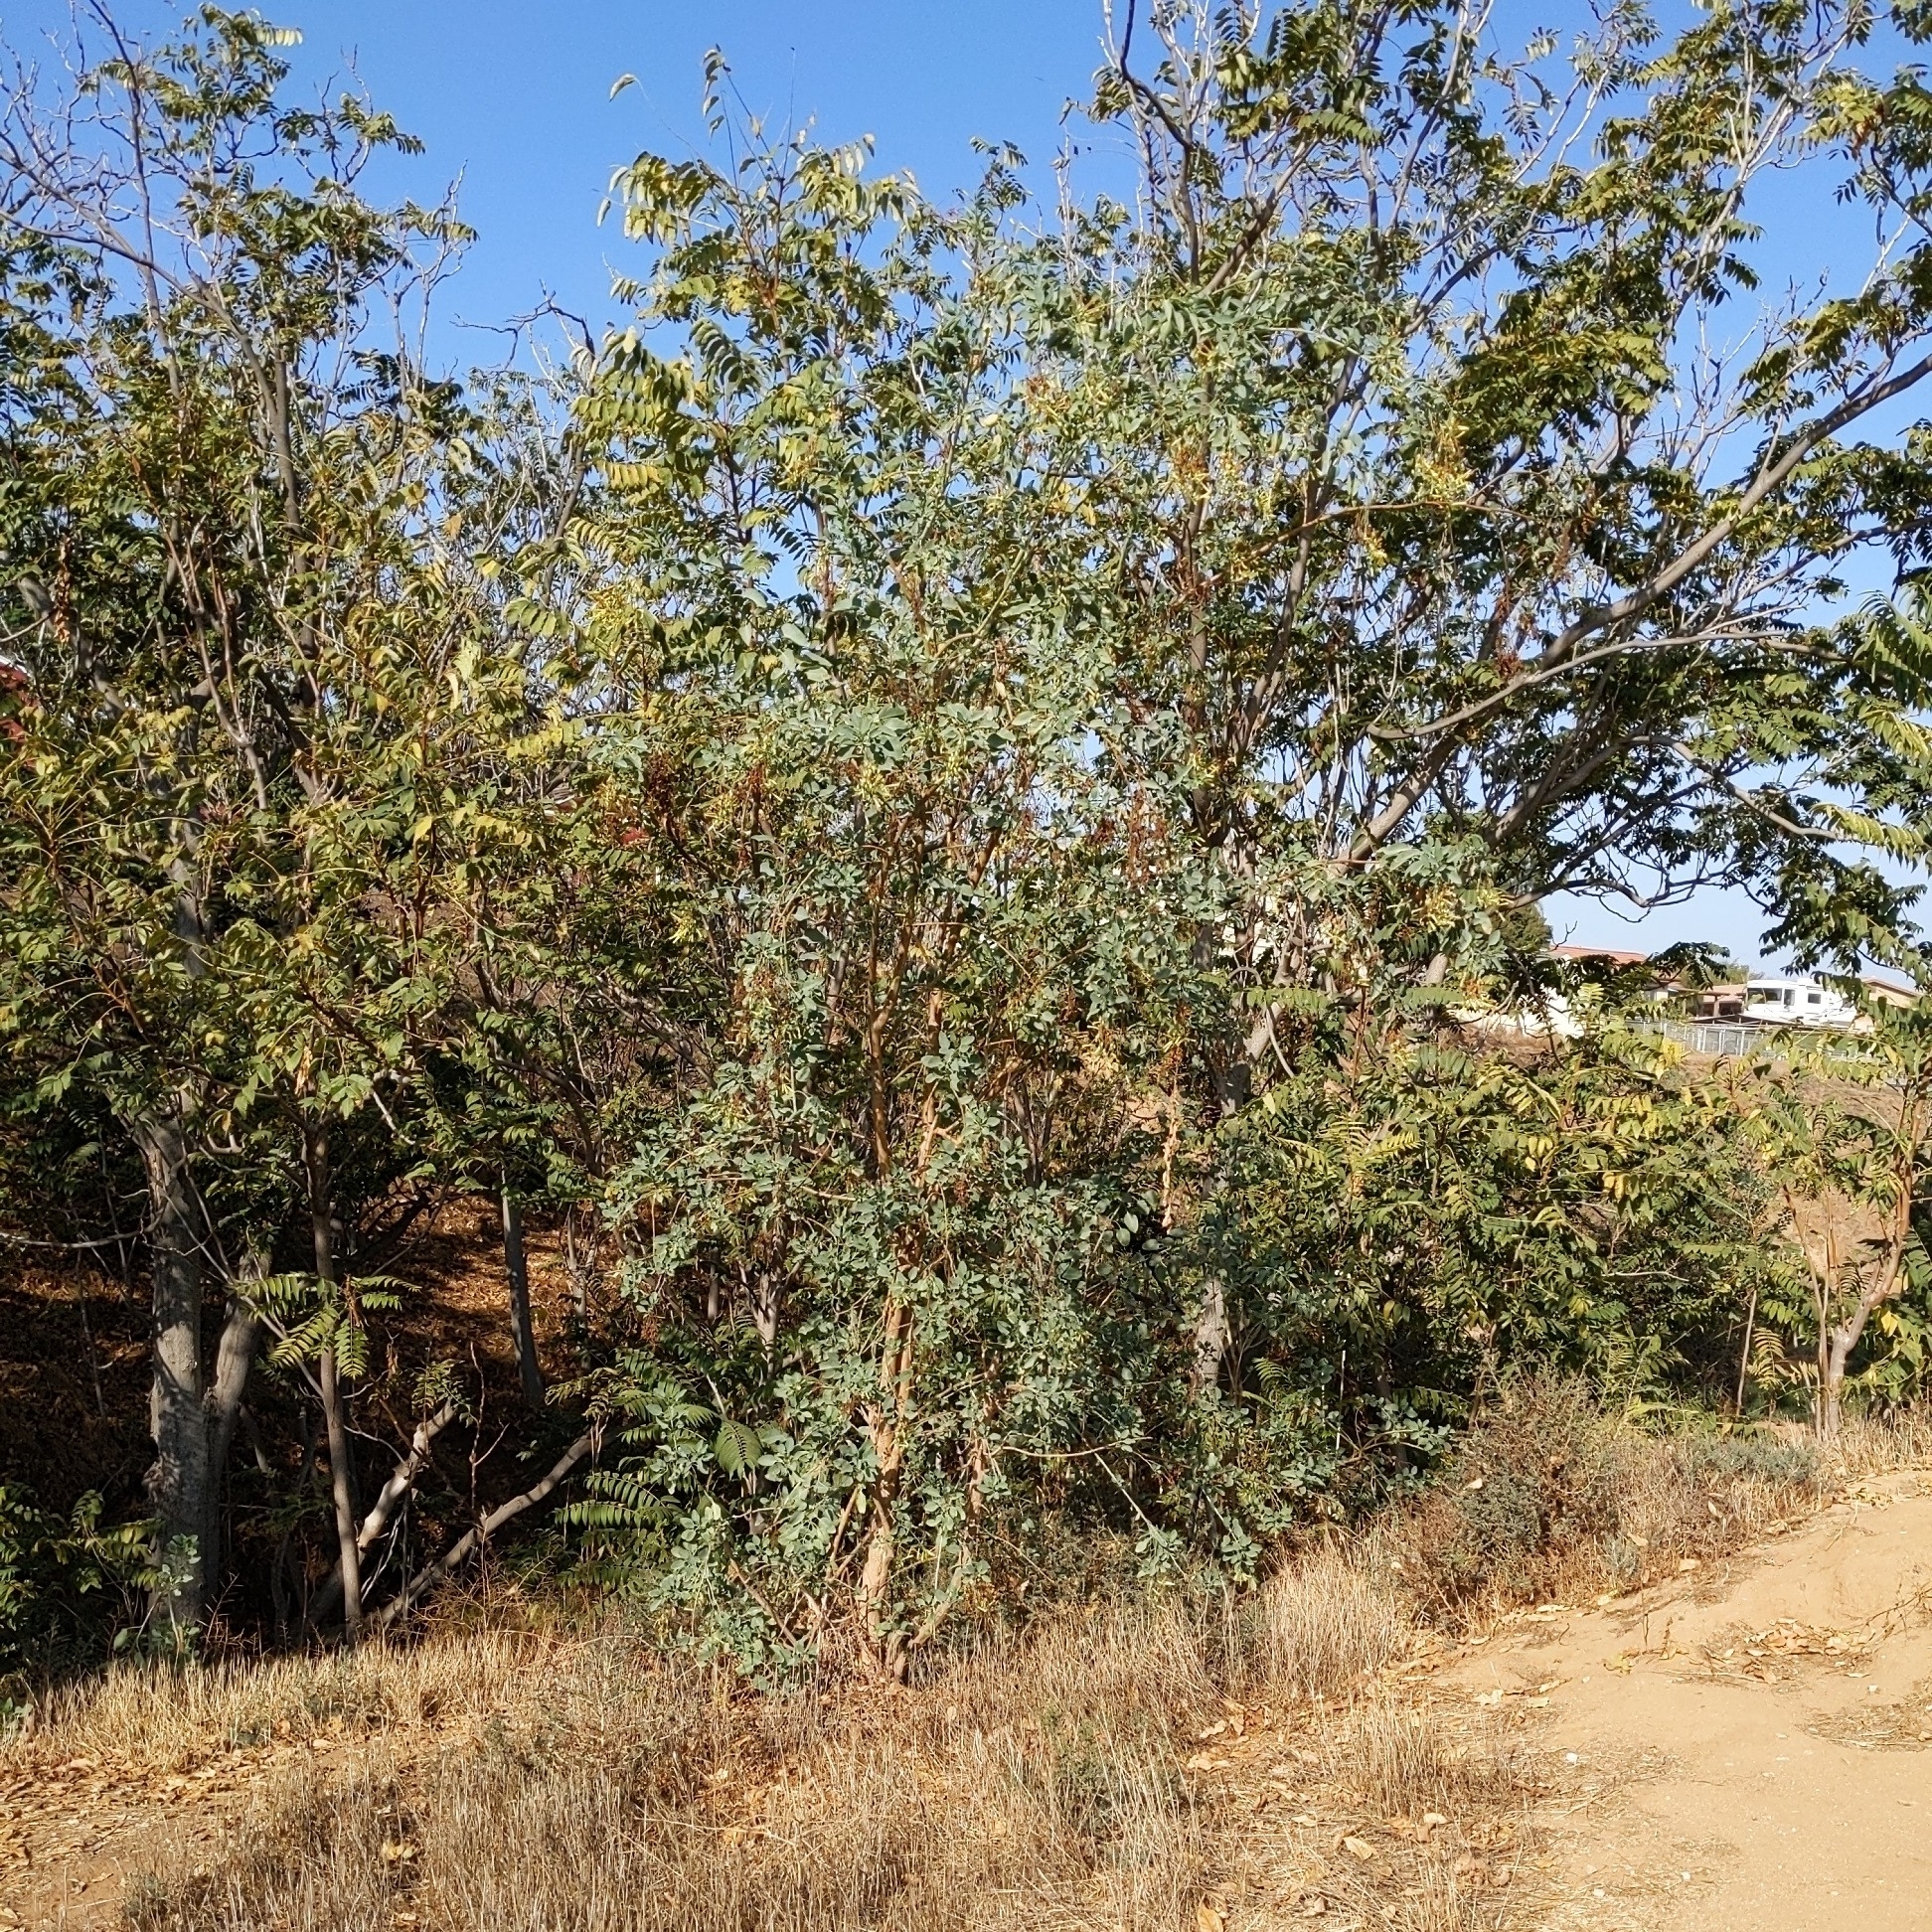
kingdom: Plantae
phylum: Tracheophyta
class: Magnoliopsida
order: Solanales
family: Solanaceae
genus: Nicotiana
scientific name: Nicotiana glauca
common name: Tree tobacco
